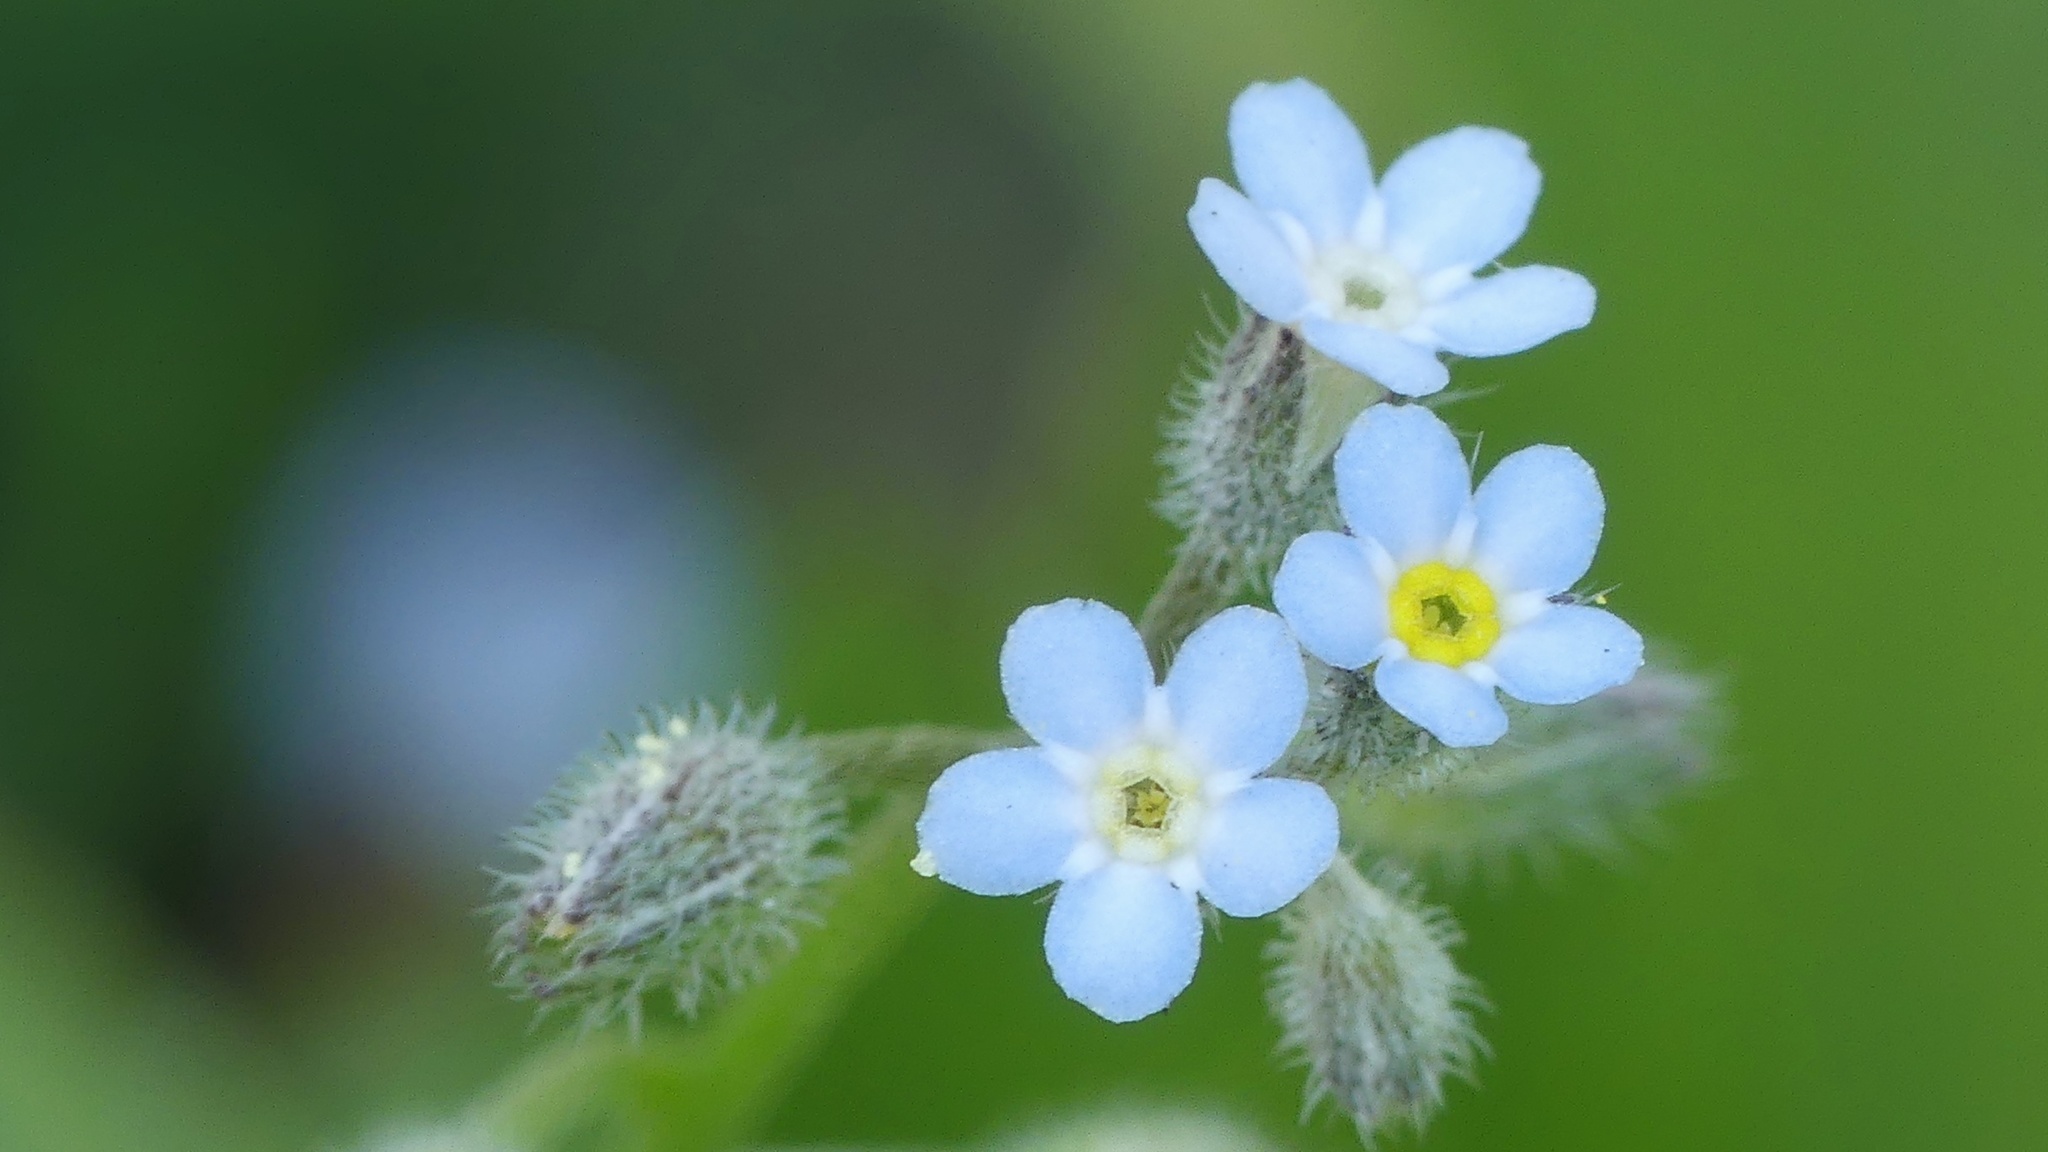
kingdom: Plantae
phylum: Tracheophyta
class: Magnoliopsida
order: Boraginales
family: Boraginaceae
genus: Myosotis
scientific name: Myosotis arvensis
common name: Field forget-me-not
